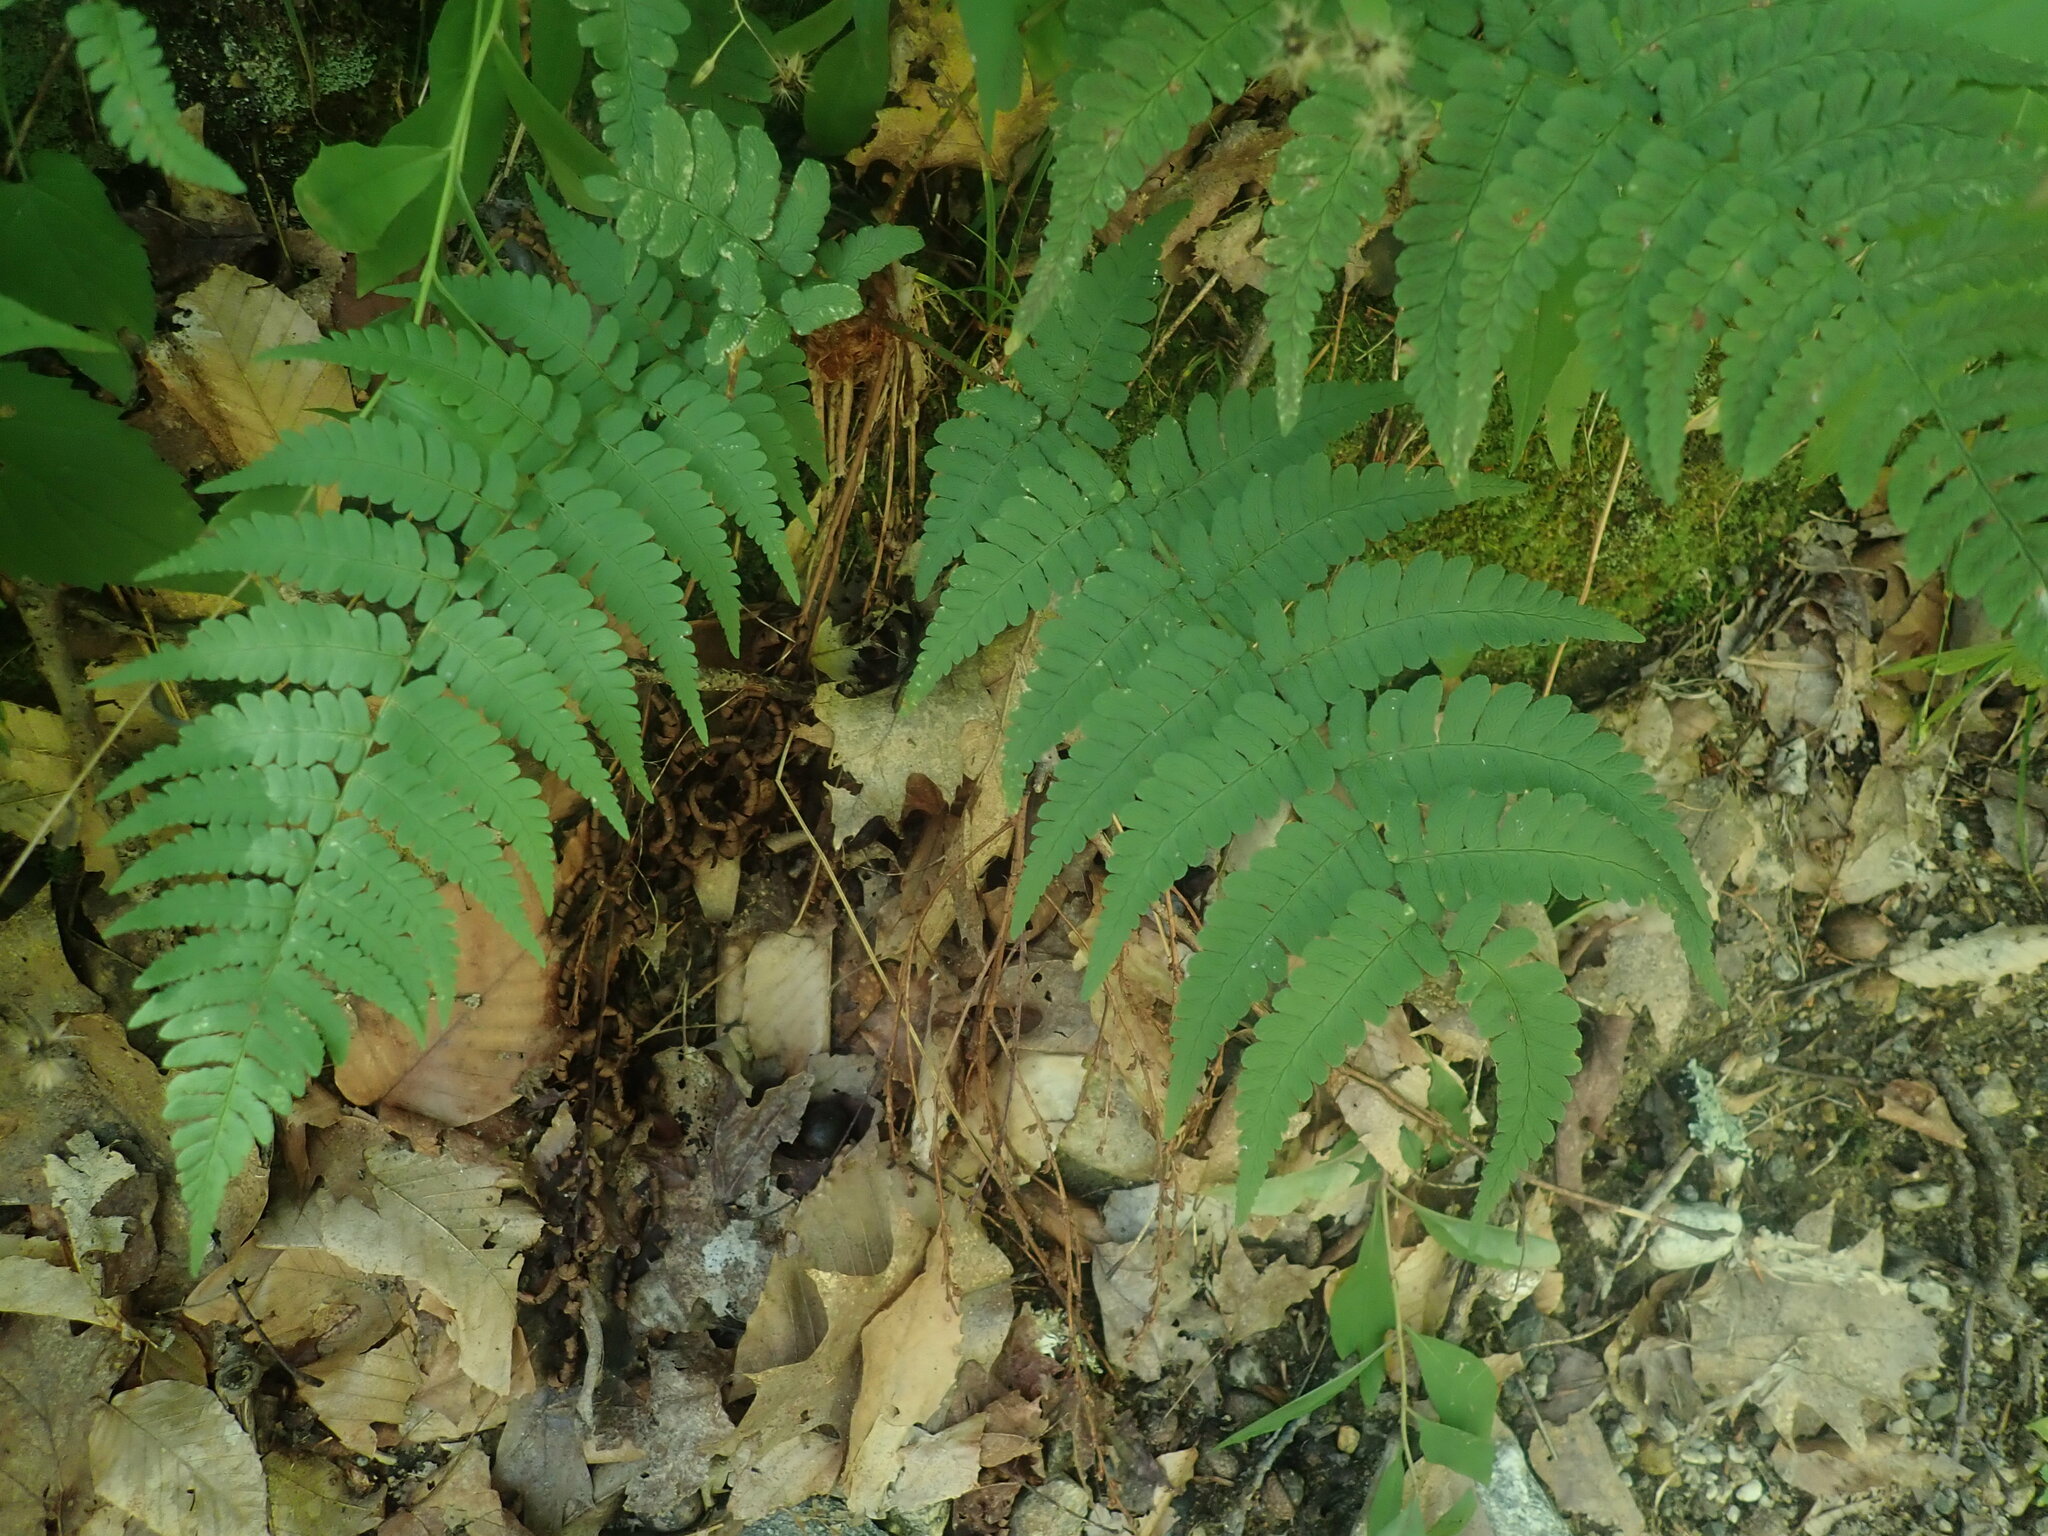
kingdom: Plantae
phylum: Tracheophyta
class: Polypodiopsida
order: Polypodiales
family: Dryopteridaceae
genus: Dryopteris
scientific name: Dryopteris marginalis
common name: Marginal wood fern
